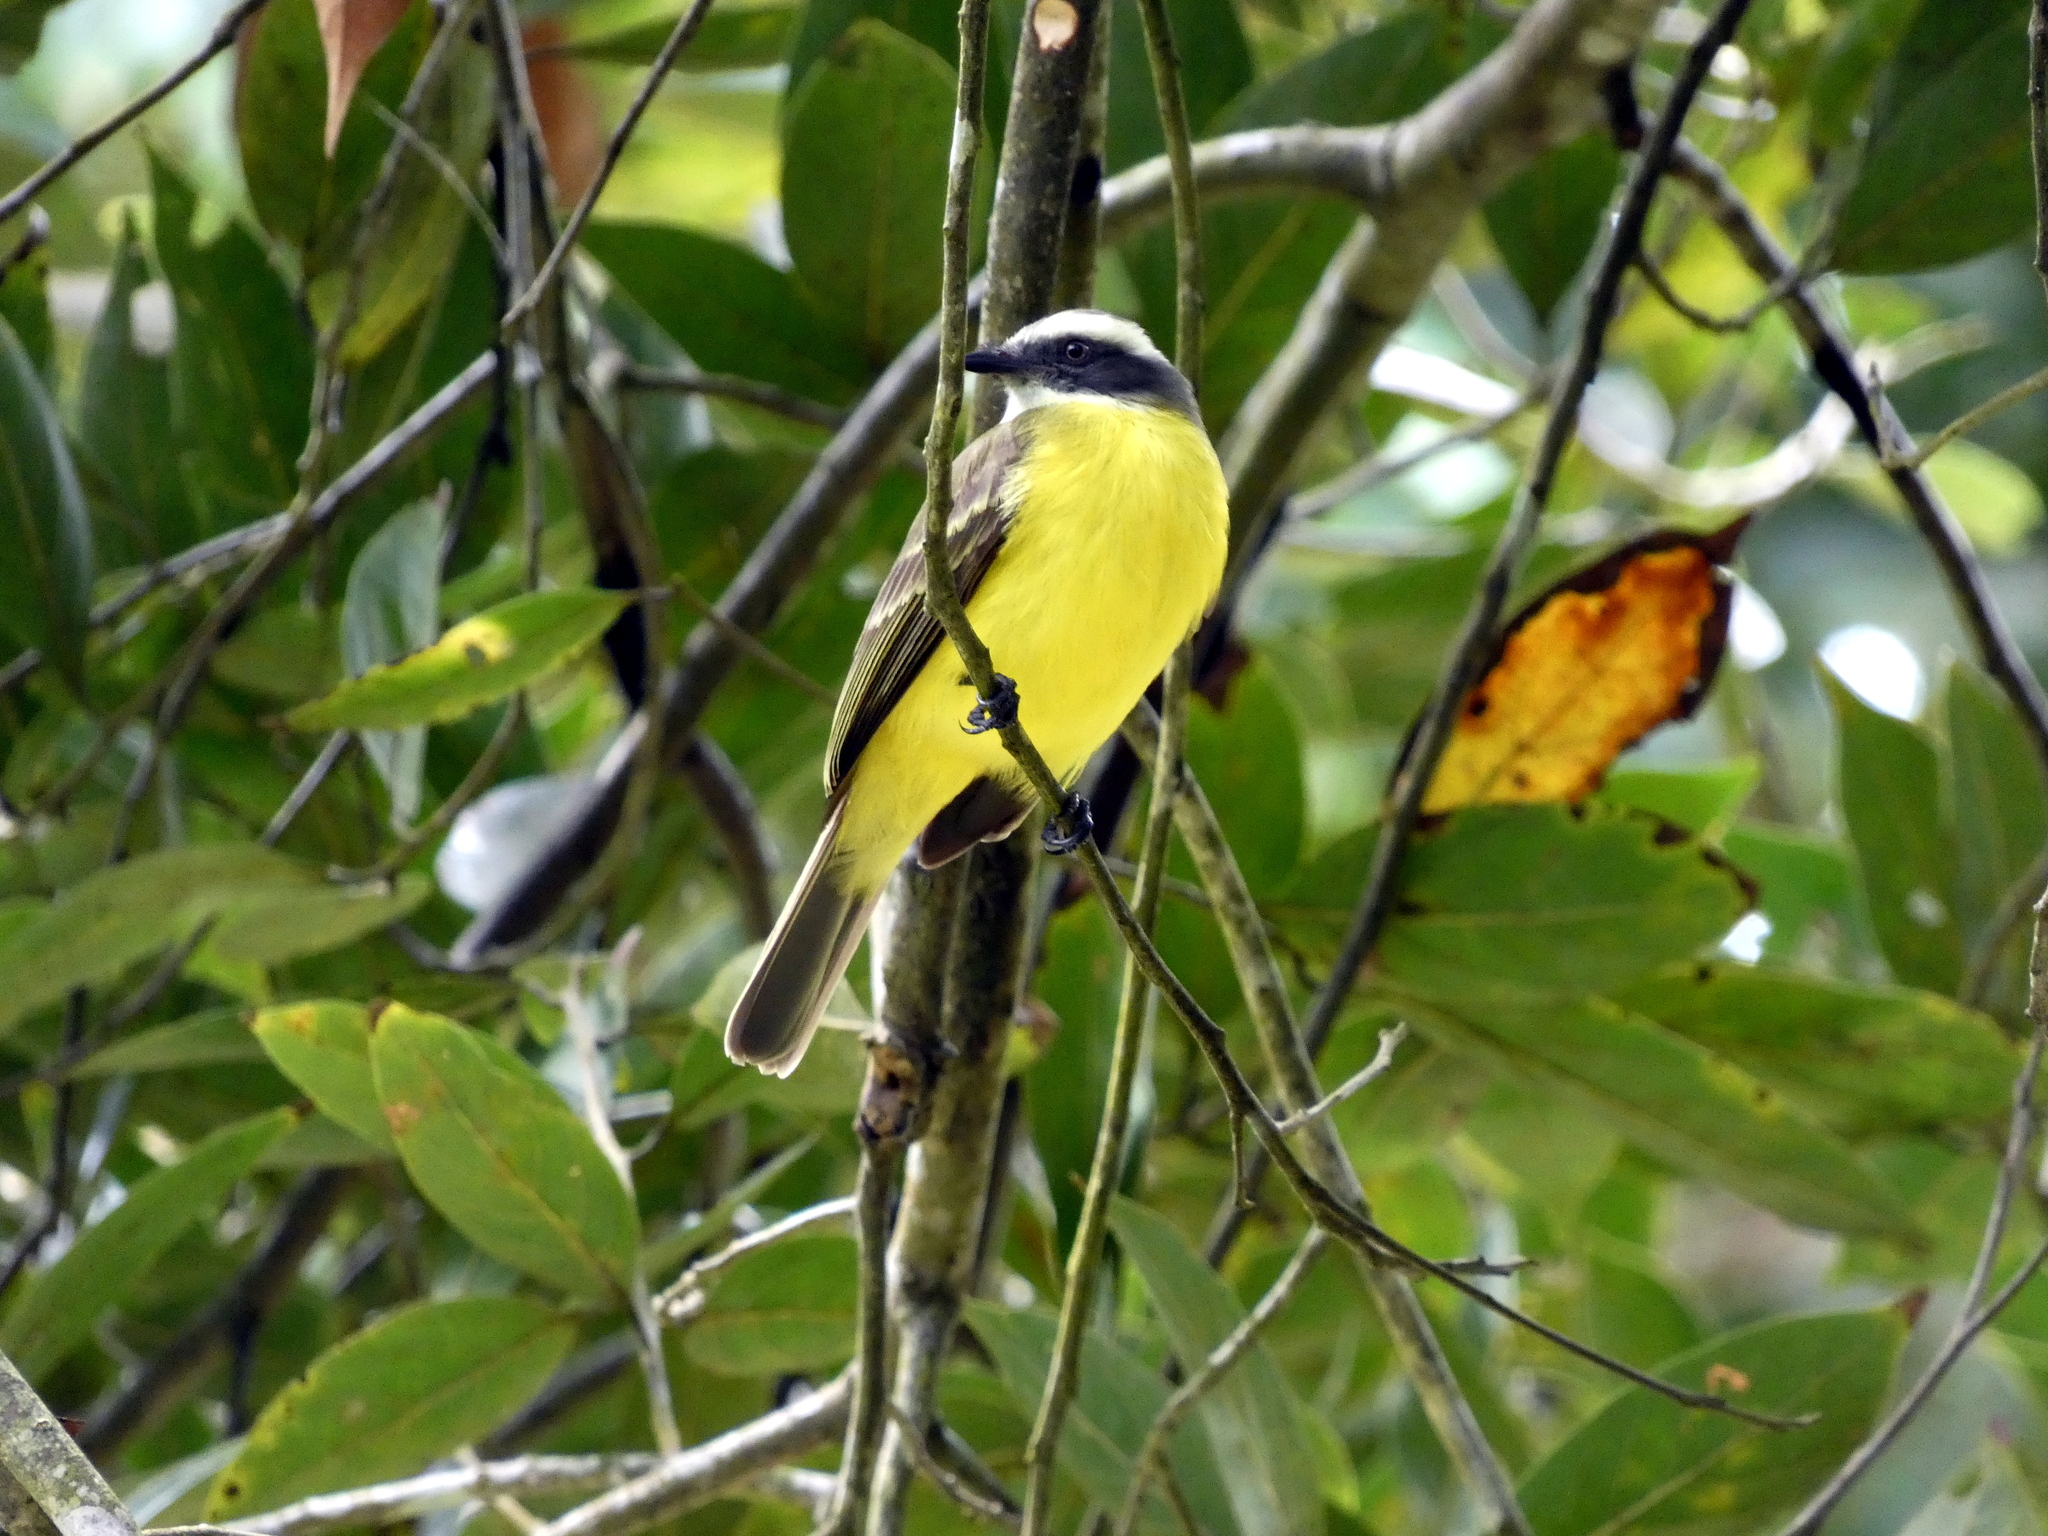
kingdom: Animalia
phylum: Chordata
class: Aves
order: Passeriformes
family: Tyrannidae
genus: Myiozetetes
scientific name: Myiozetetes similis
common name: Social flycatcher
